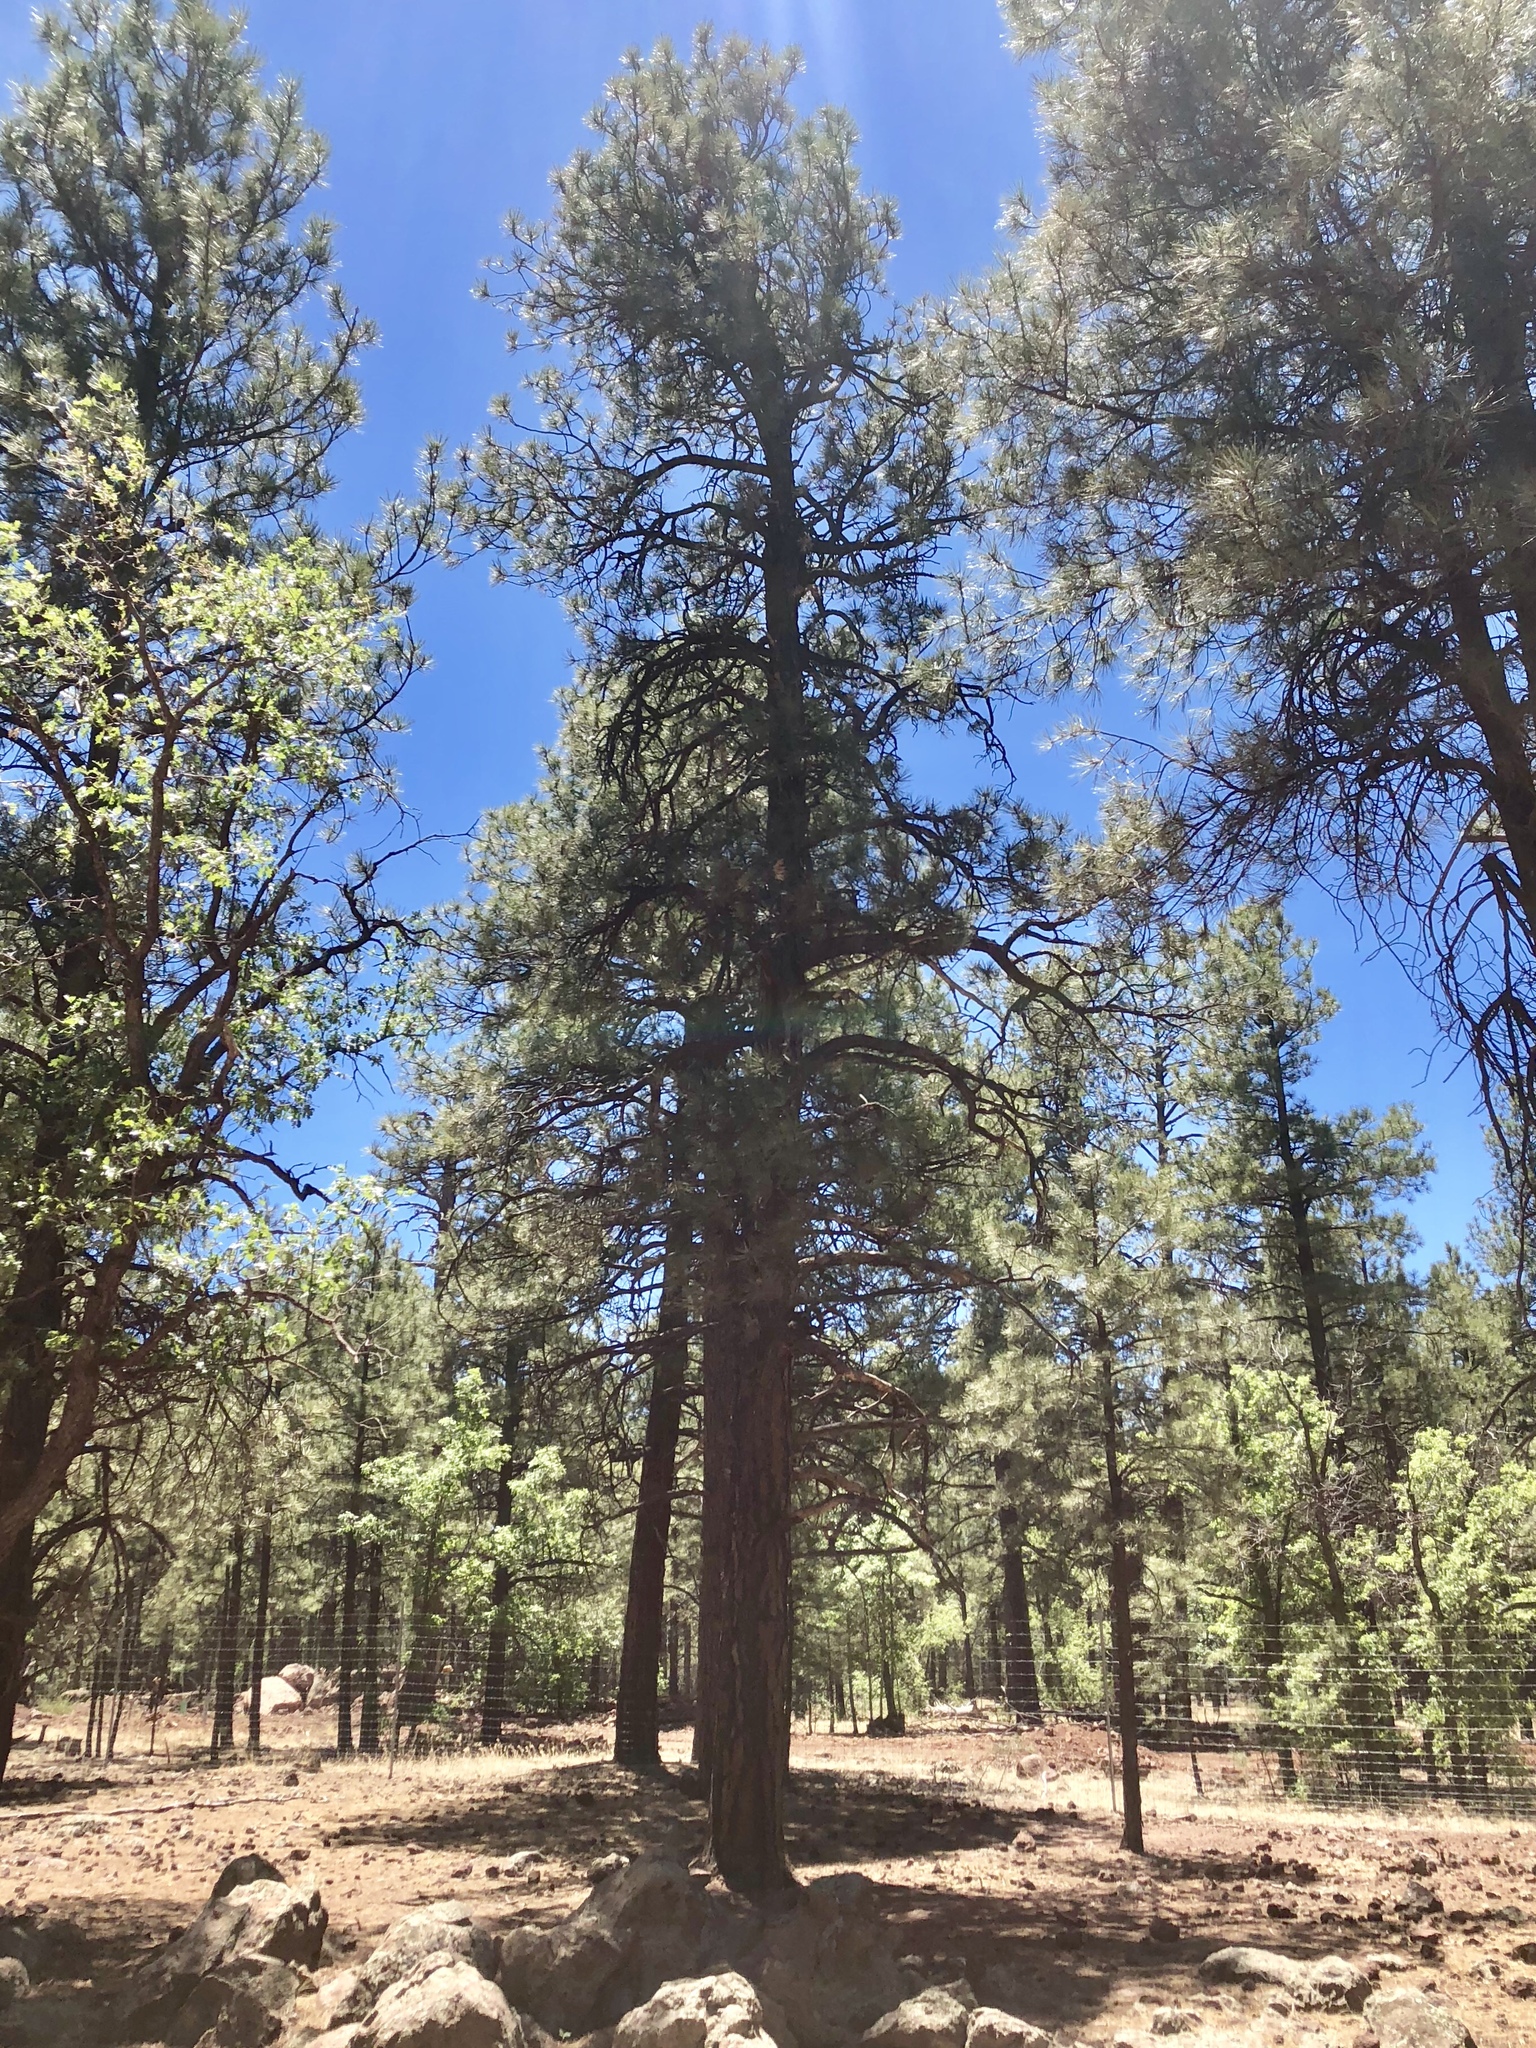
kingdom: Plantae
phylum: Tracheophyta
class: Pinopsida
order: Pinales
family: Pinaceae
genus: Pinus
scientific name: Pinus ponderosa
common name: Western yellow-pine
